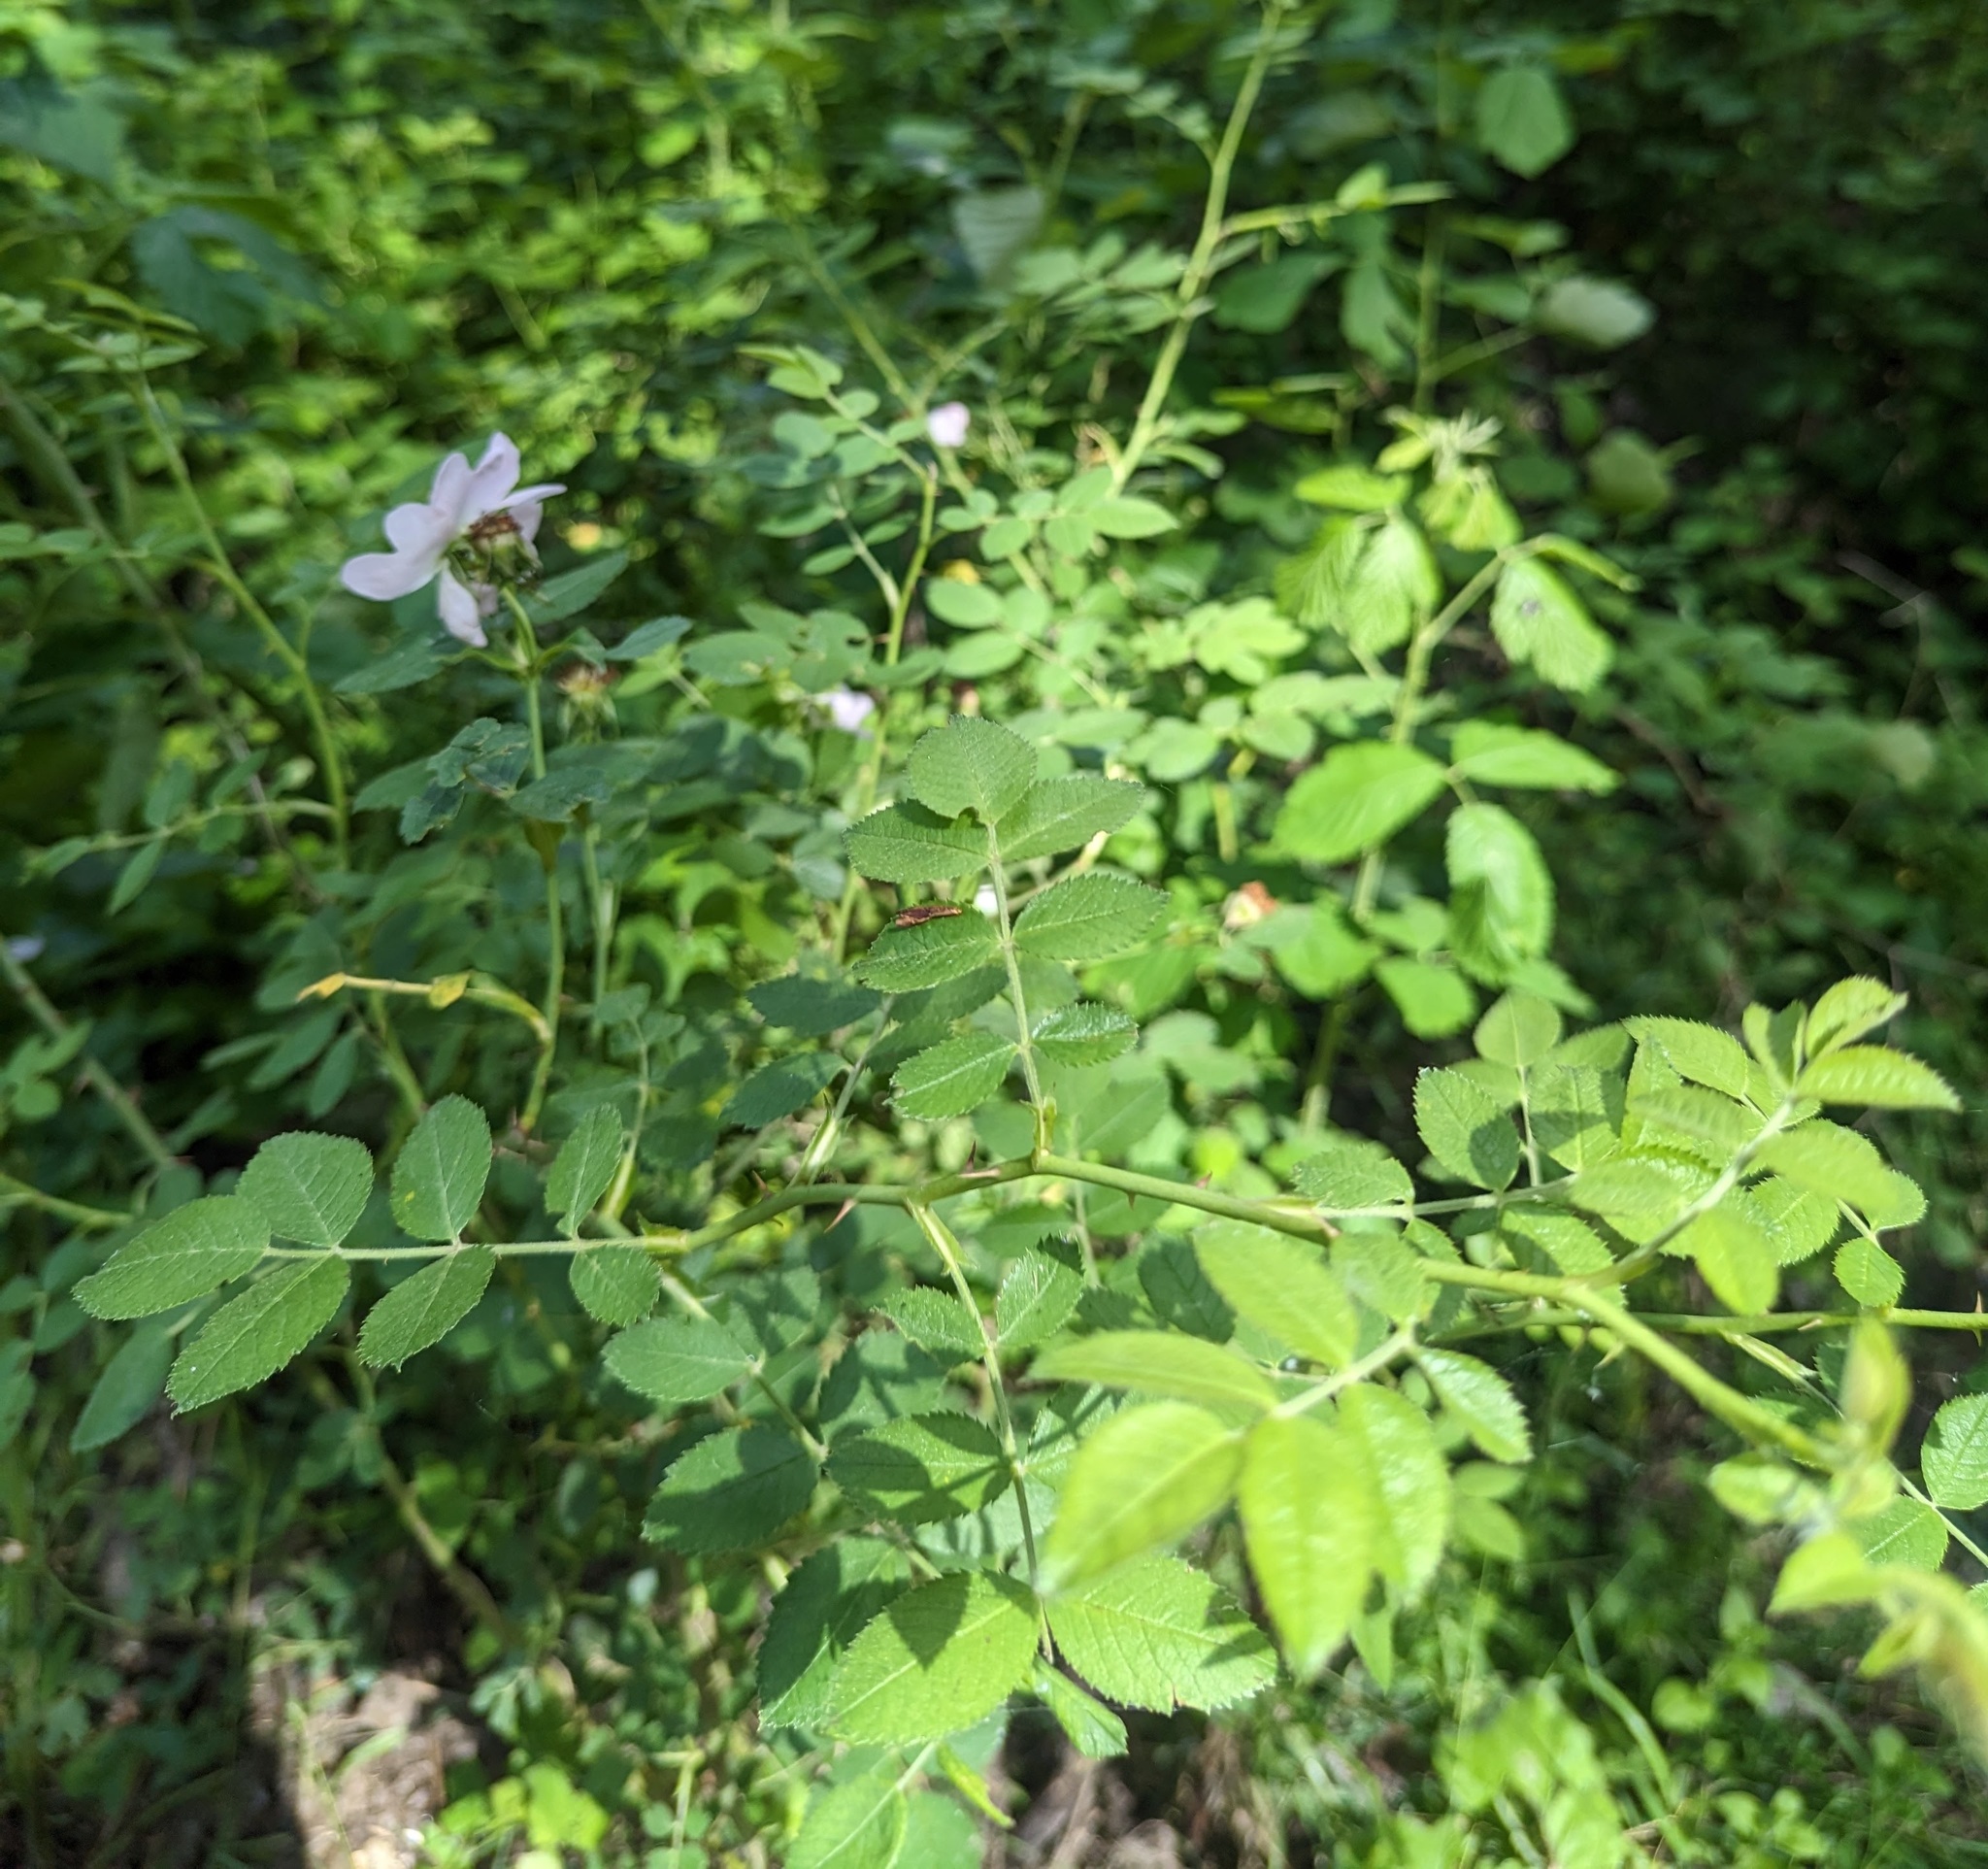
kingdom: Plantae
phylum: Tracheophyta
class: Magnoliopsida
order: Rosales
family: Rosaceae
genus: Rosa
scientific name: Rosa canina
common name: Dog rose
